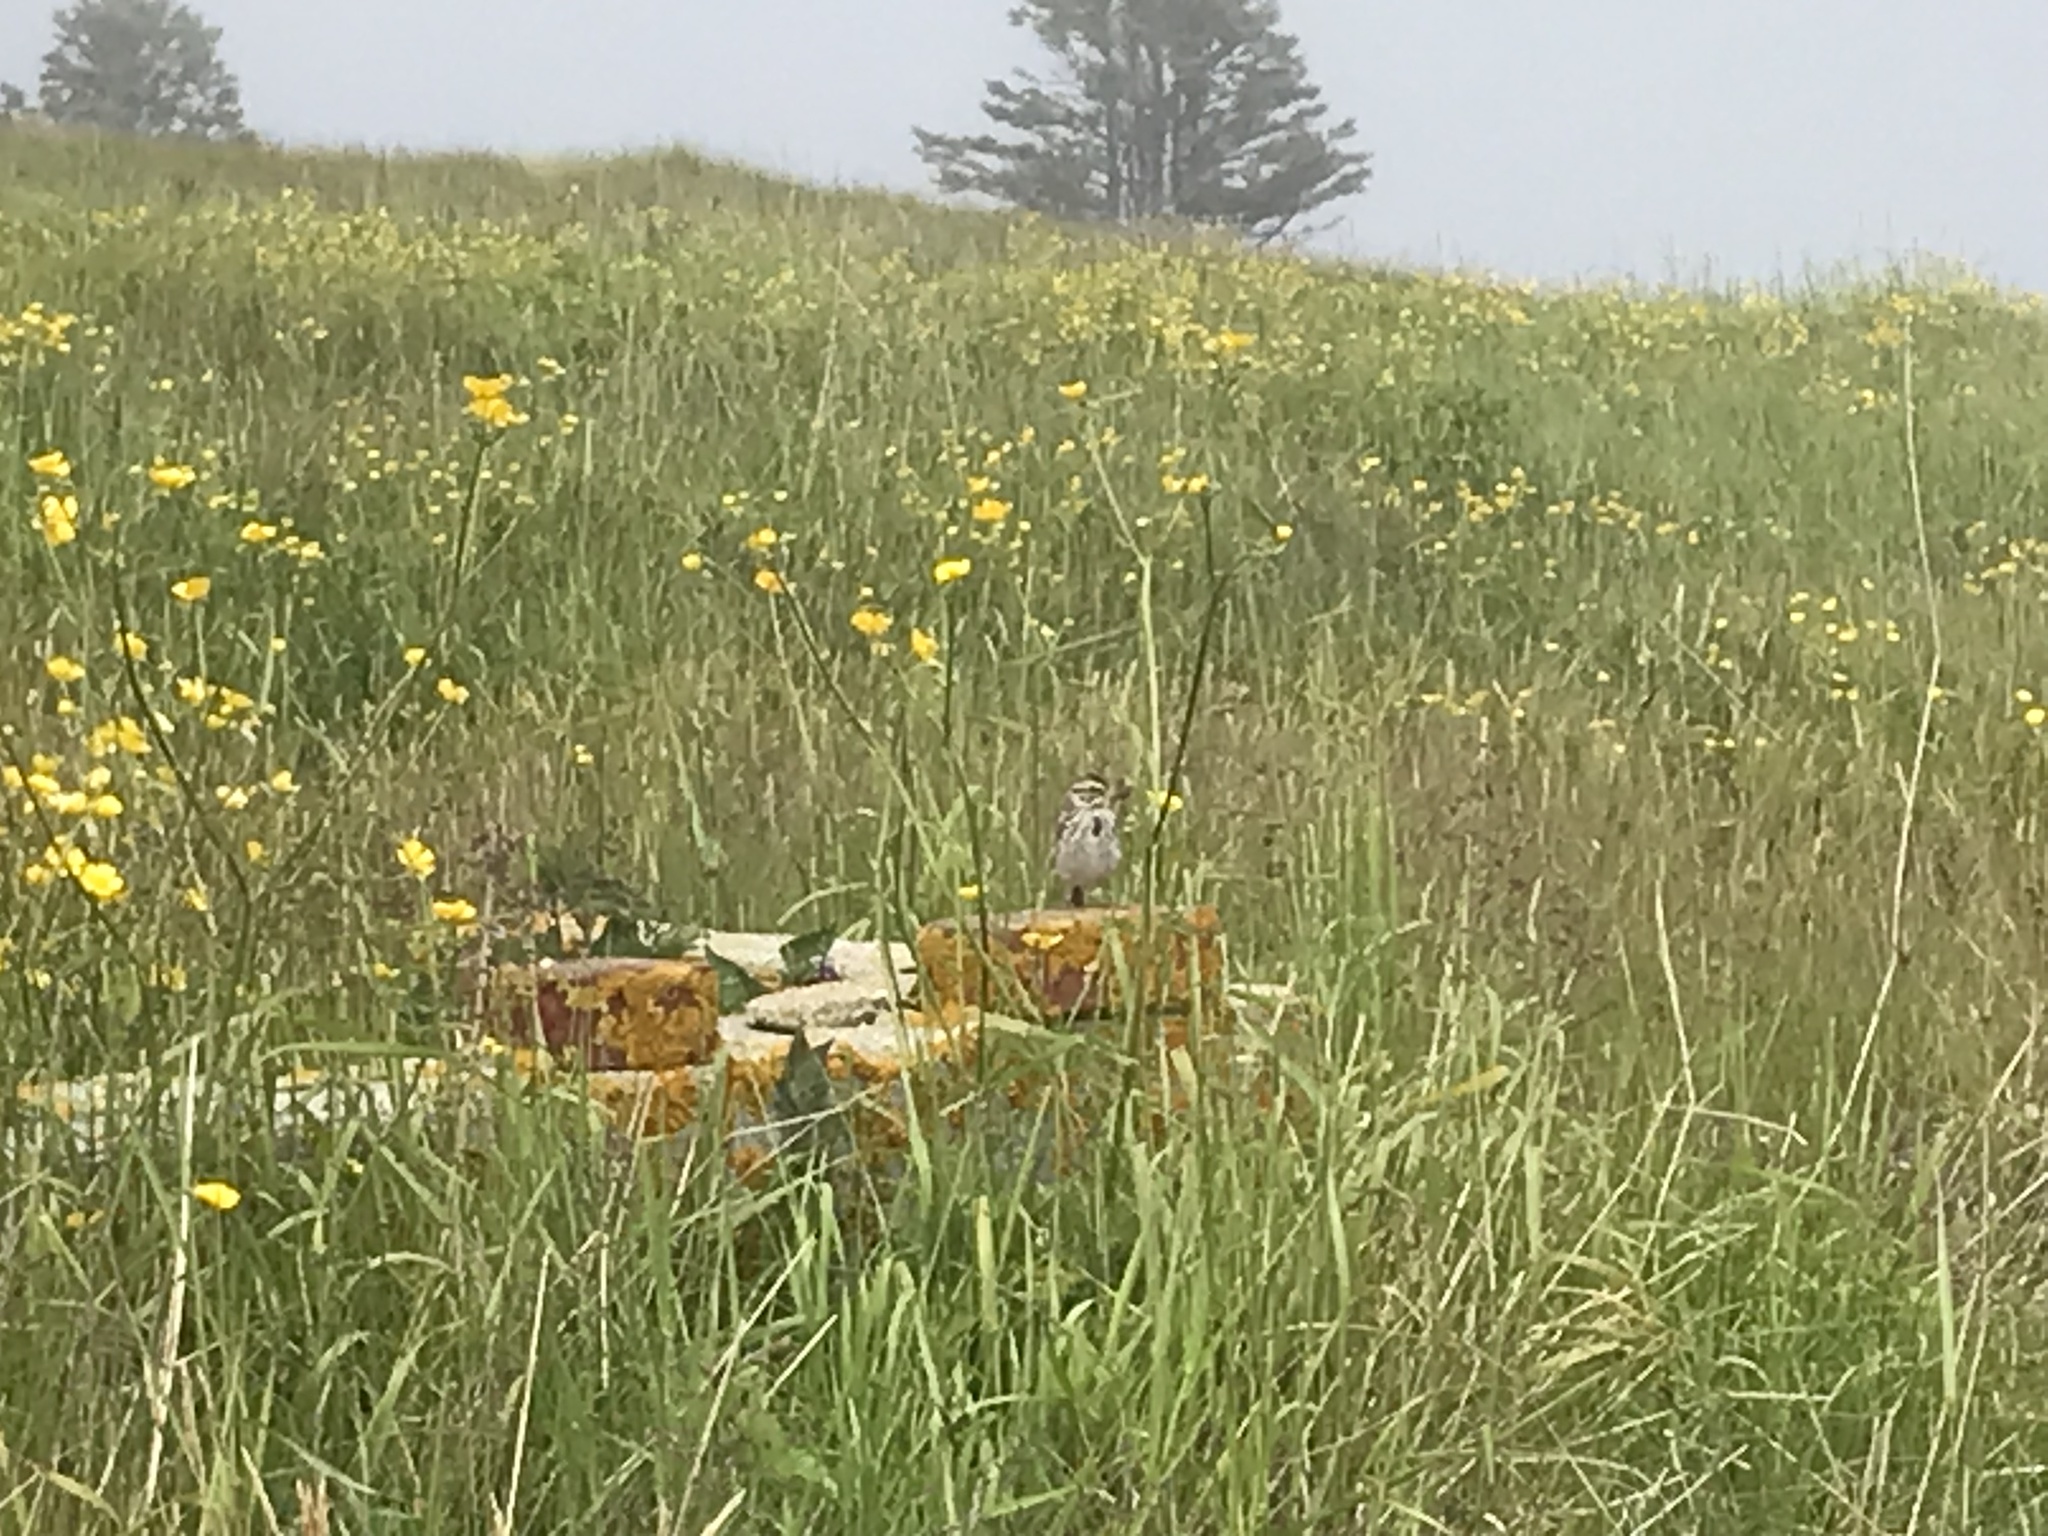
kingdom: Animalia
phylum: Chordata
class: Aves
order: Passeriformes
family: Passerellidae
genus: Passerculus
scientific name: Passerculus sandwichensis
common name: Savannah sparrow
